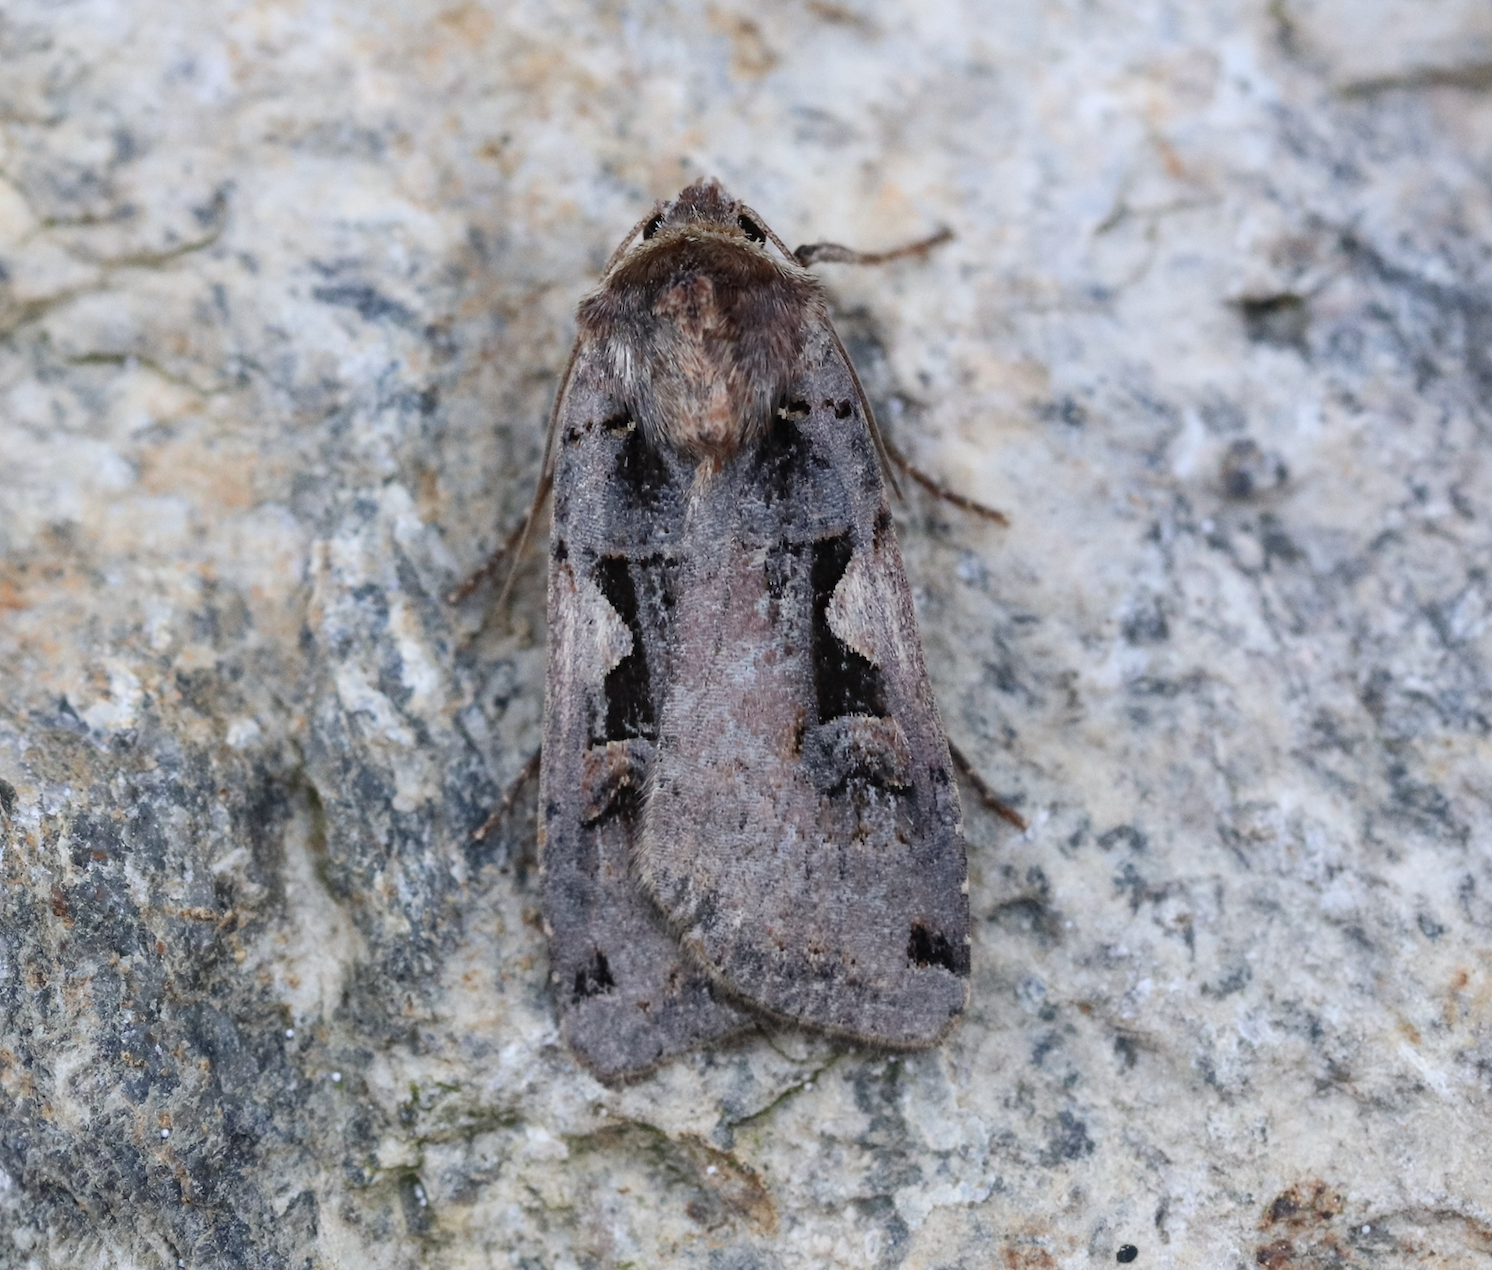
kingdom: Animalia
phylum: Arthropoda
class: Insecta
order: Lepidoptera
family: Noctuidae
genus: Xestia
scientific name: Xestia c-nigrum
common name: Setaceous hebrew character
